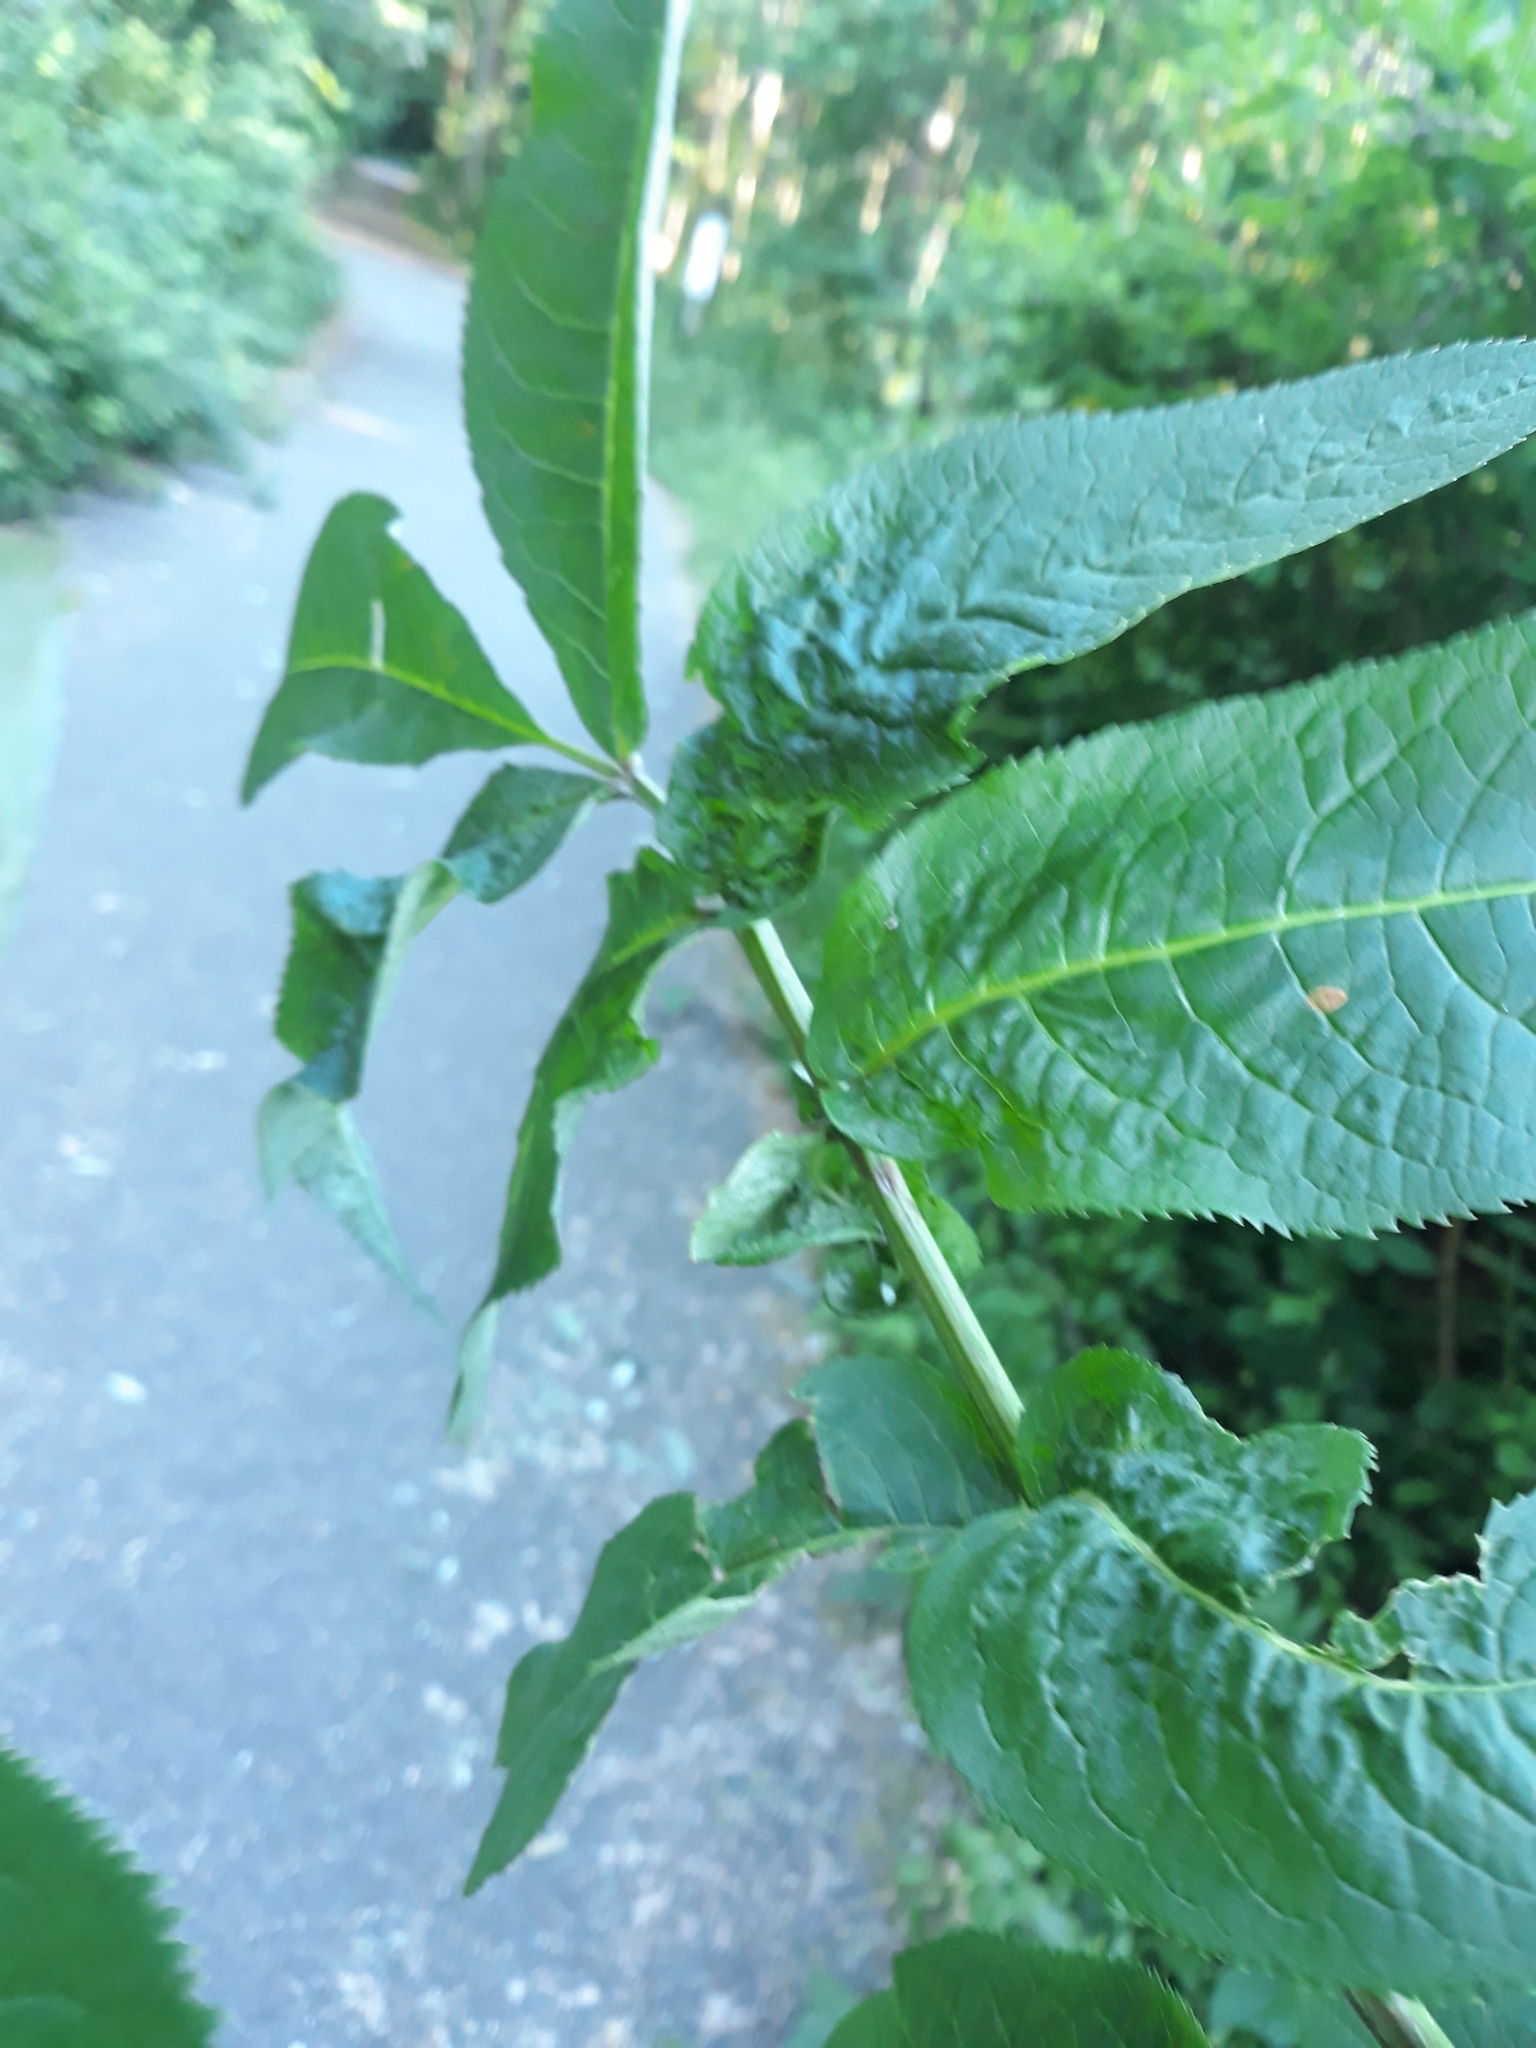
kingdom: Plantae
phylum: Tracheophyta
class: Magnoliopsida
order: Dipsacales
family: Viburnaceae
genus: Sambucus
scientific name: Sambucus racemosa
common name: Red-berried elder
